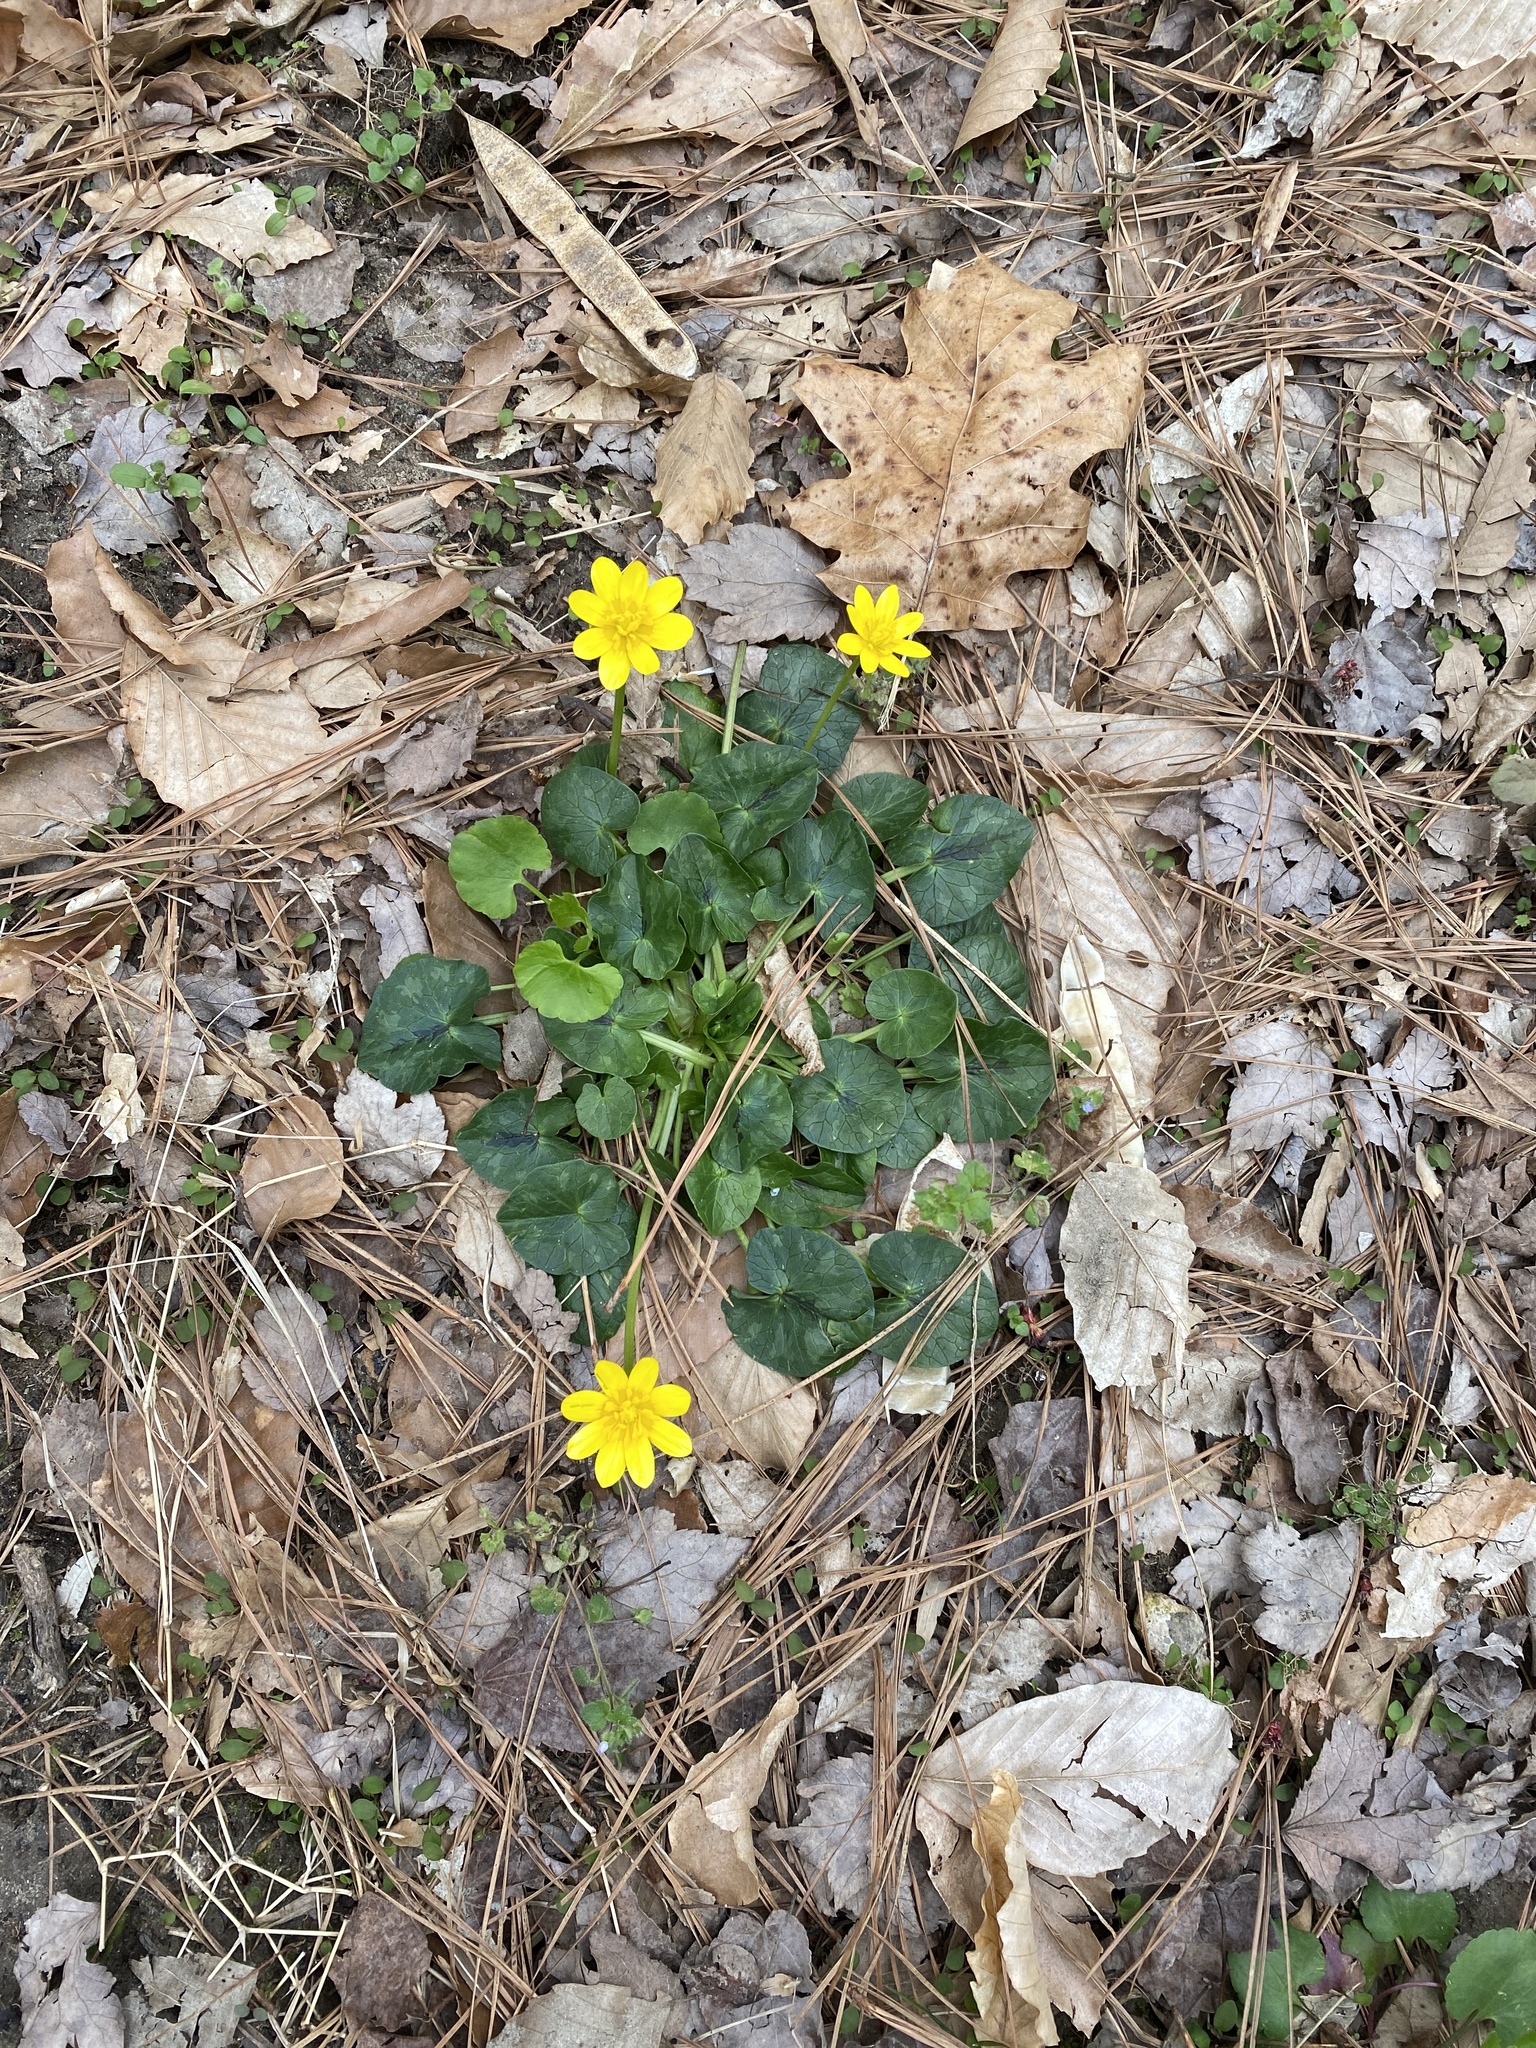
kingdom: Plantae
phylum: Tracheophyta
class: Magnoliopsida
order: Ranunculales
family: Ranunculaceae
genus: Ficaria
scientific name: Ficaria verna
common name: Lesser celandine
